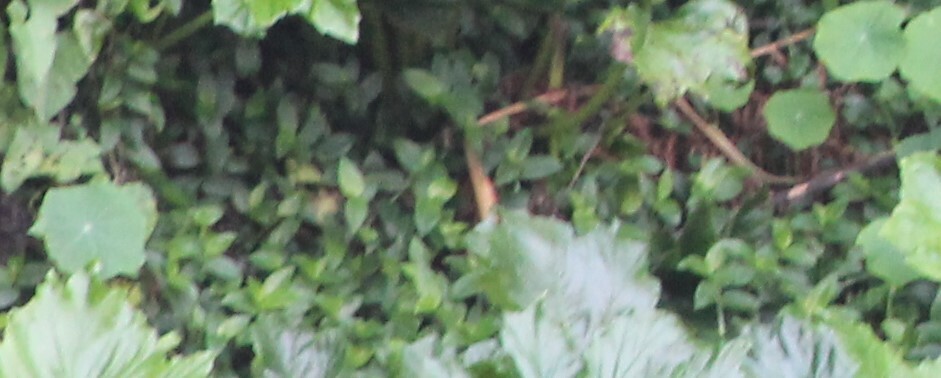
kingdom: Plantae
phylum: Tracheophyta
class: Liliopsida
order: Commelinales
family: Commelinaceae
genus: Tradescantia
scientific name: Tradescantia fluminensis
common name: Wandering-jew
